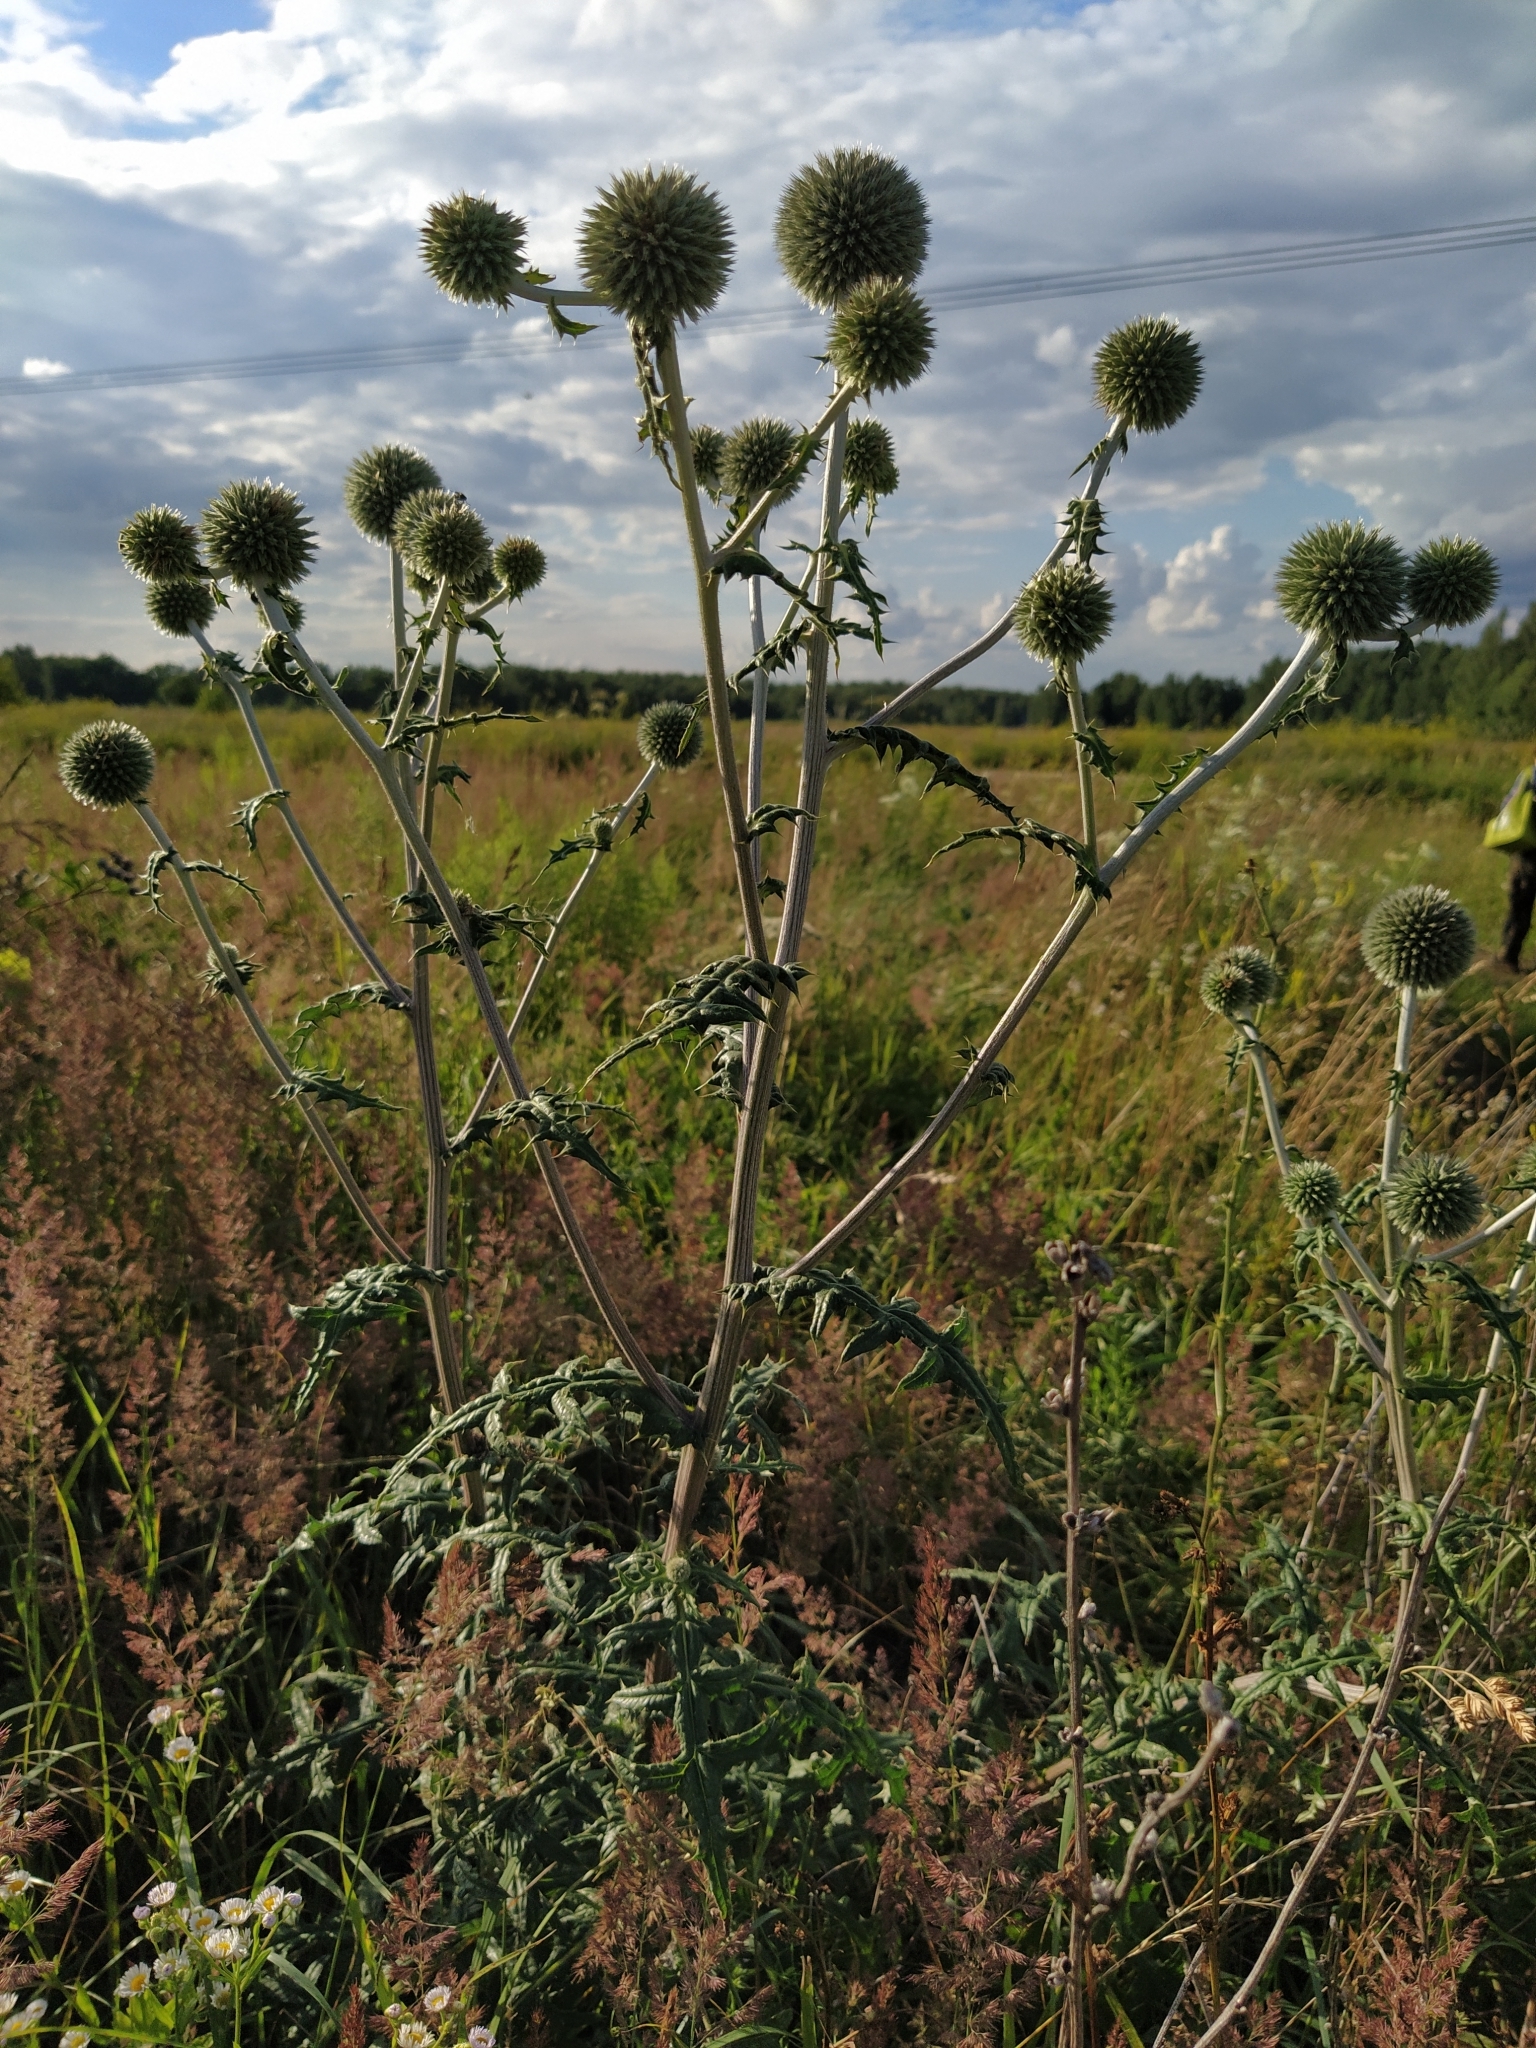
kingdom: Plantae
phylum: Tracheophyta
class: Magnoliopsida
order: Asterales
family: Asteraceae
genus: Echinops
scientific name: Echinops sphaerocephalus
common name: Glandular globe-thistle
